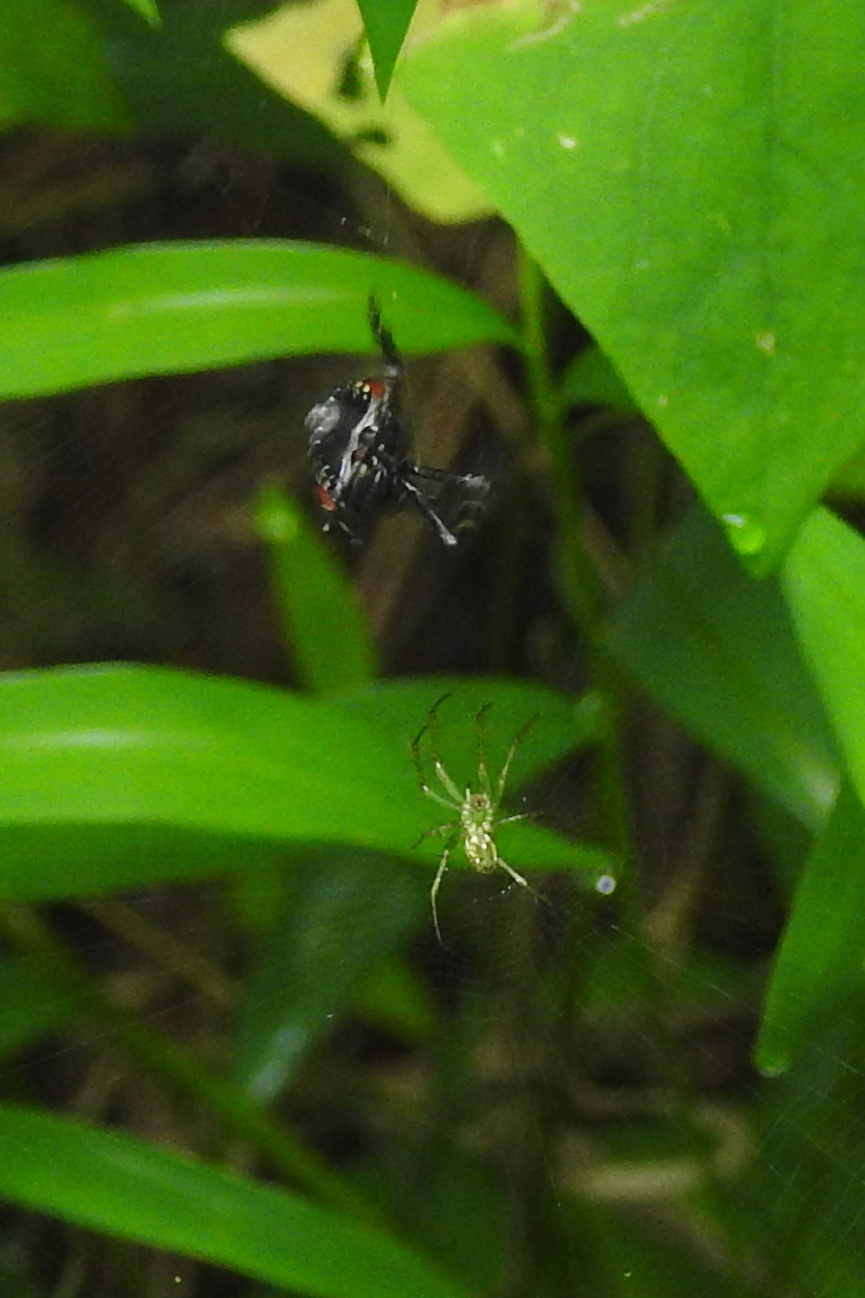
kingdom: Animalia
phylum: Arthropoda
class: Insecta
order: Hemiptera
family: Fulgoridae
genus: Lycorma
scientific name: Lycorma delicatula
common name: Spotted lanternfly
